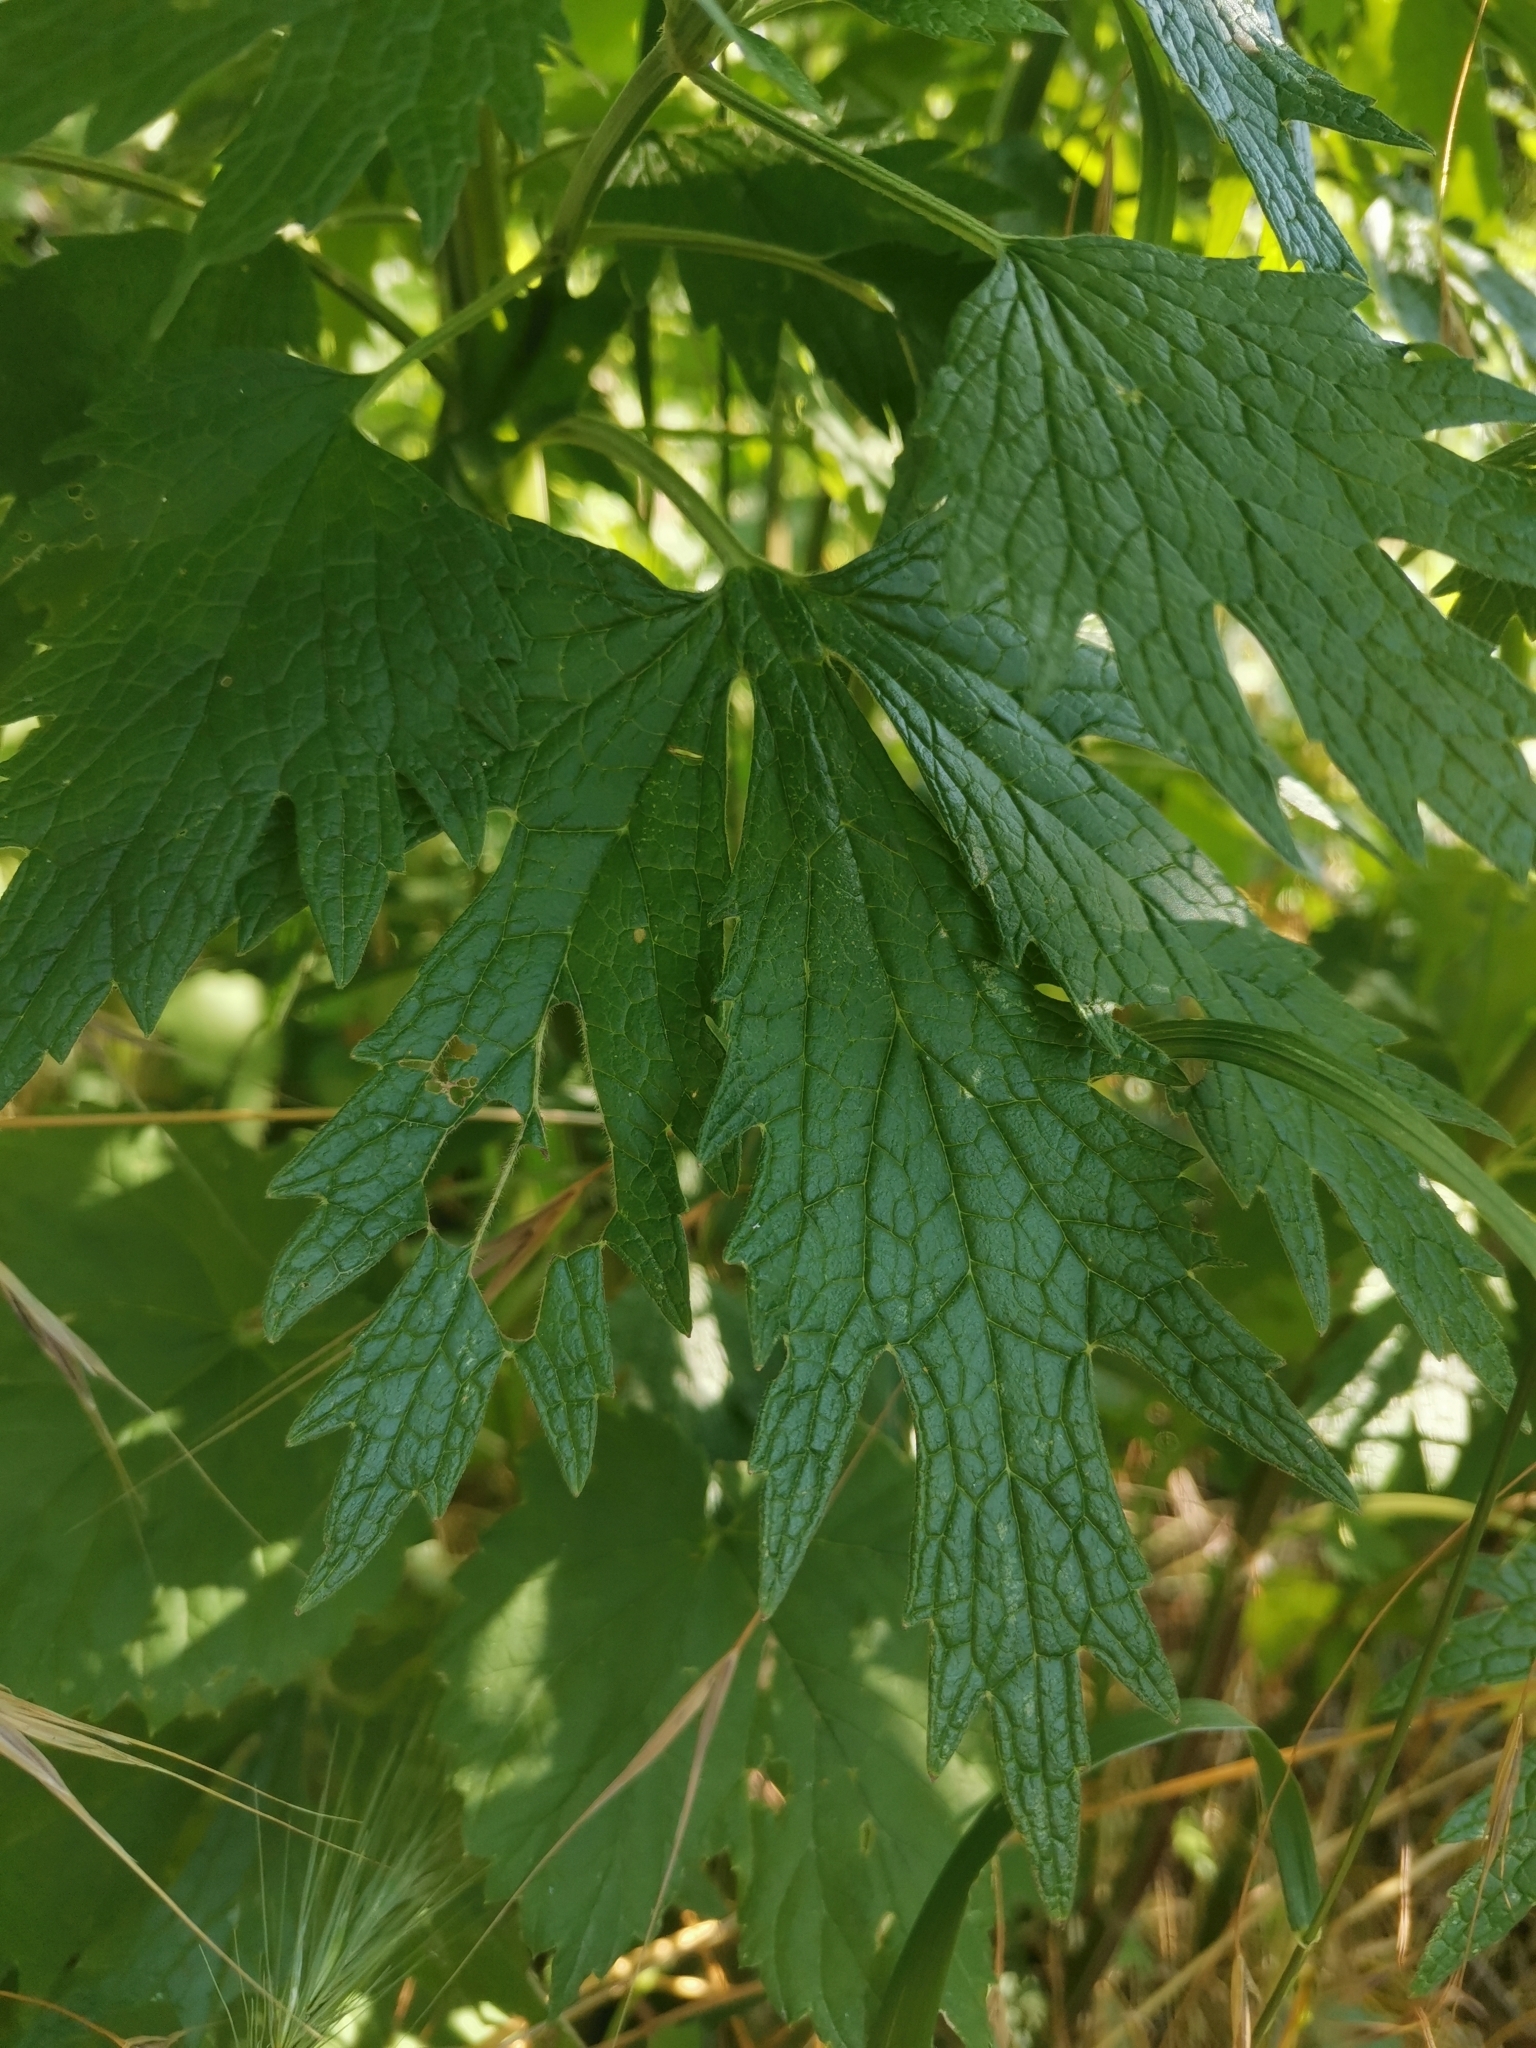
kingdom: Plantae
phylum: Tracheophyta
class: Magnoliopsida
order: Lamiales
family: Lamiaceae
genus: Leonurus
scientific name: Leonurus cardiaca
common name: Motherwort
